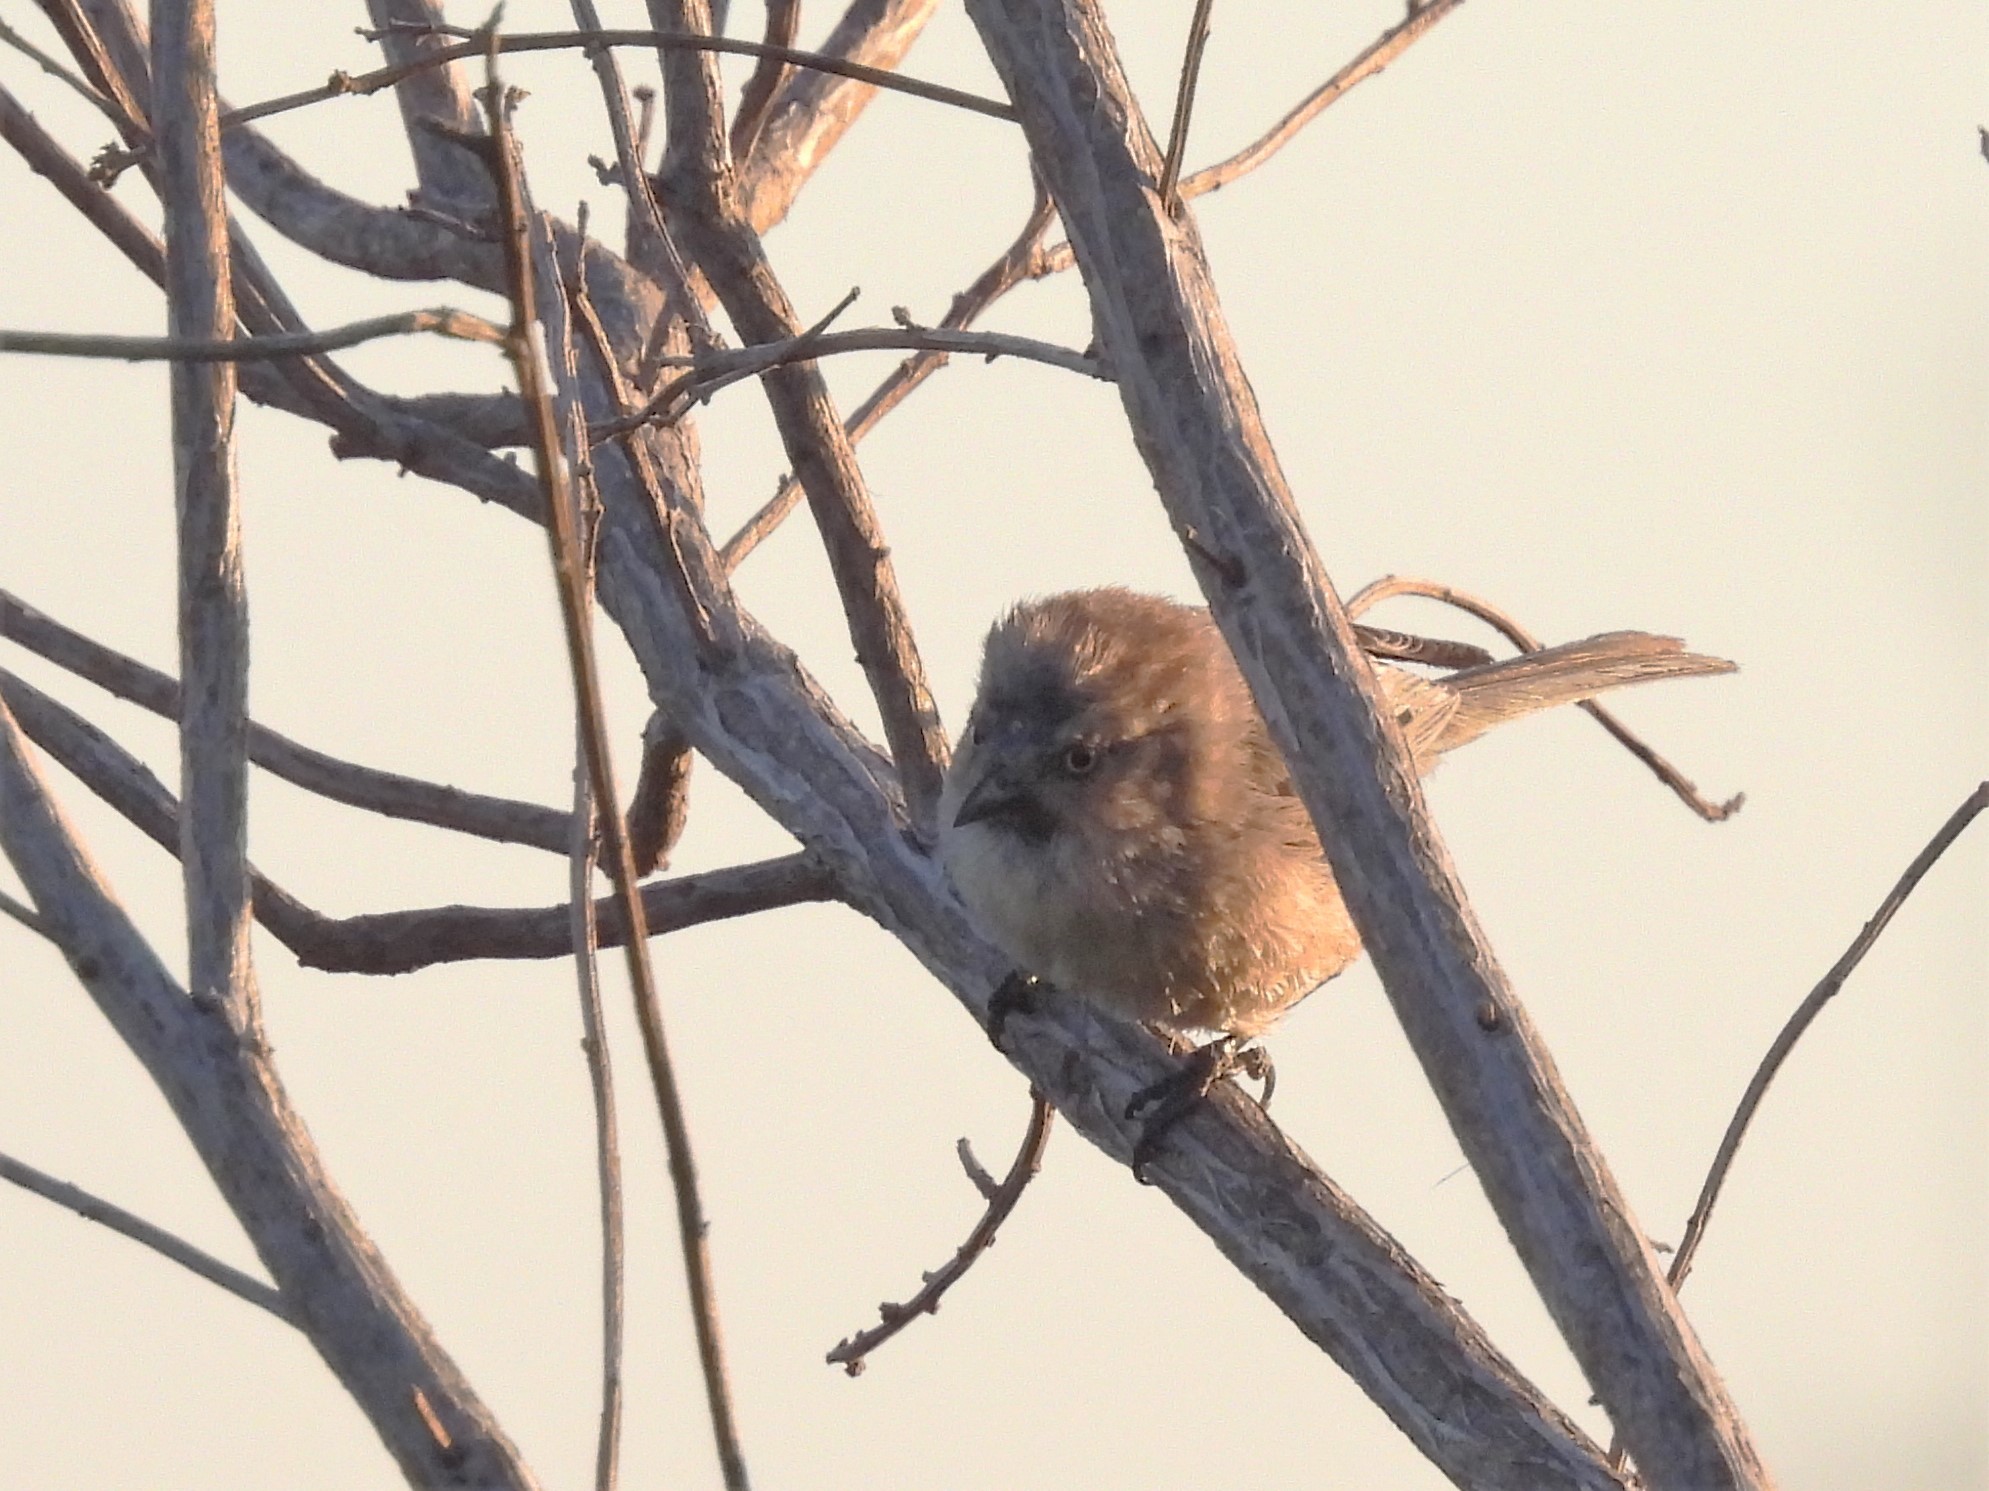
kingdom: Animalia
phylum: Chordata
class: Aves
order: Passeriformes
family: Aegithalidae
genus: Psaltriparus
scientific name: Psaltriparus minimus
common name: American bushtit
